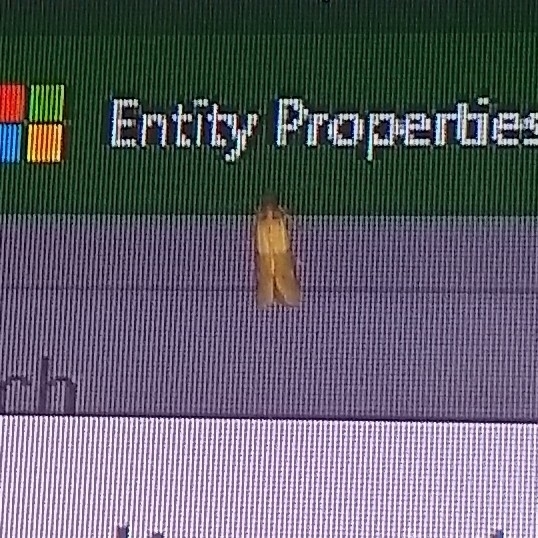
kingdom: Animalia
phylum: Arthropoda
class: Insecta
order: Lepidoptera
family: Pyralidae
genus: Plodia
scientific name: Plodia interpunctella
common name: Indian meal moth
